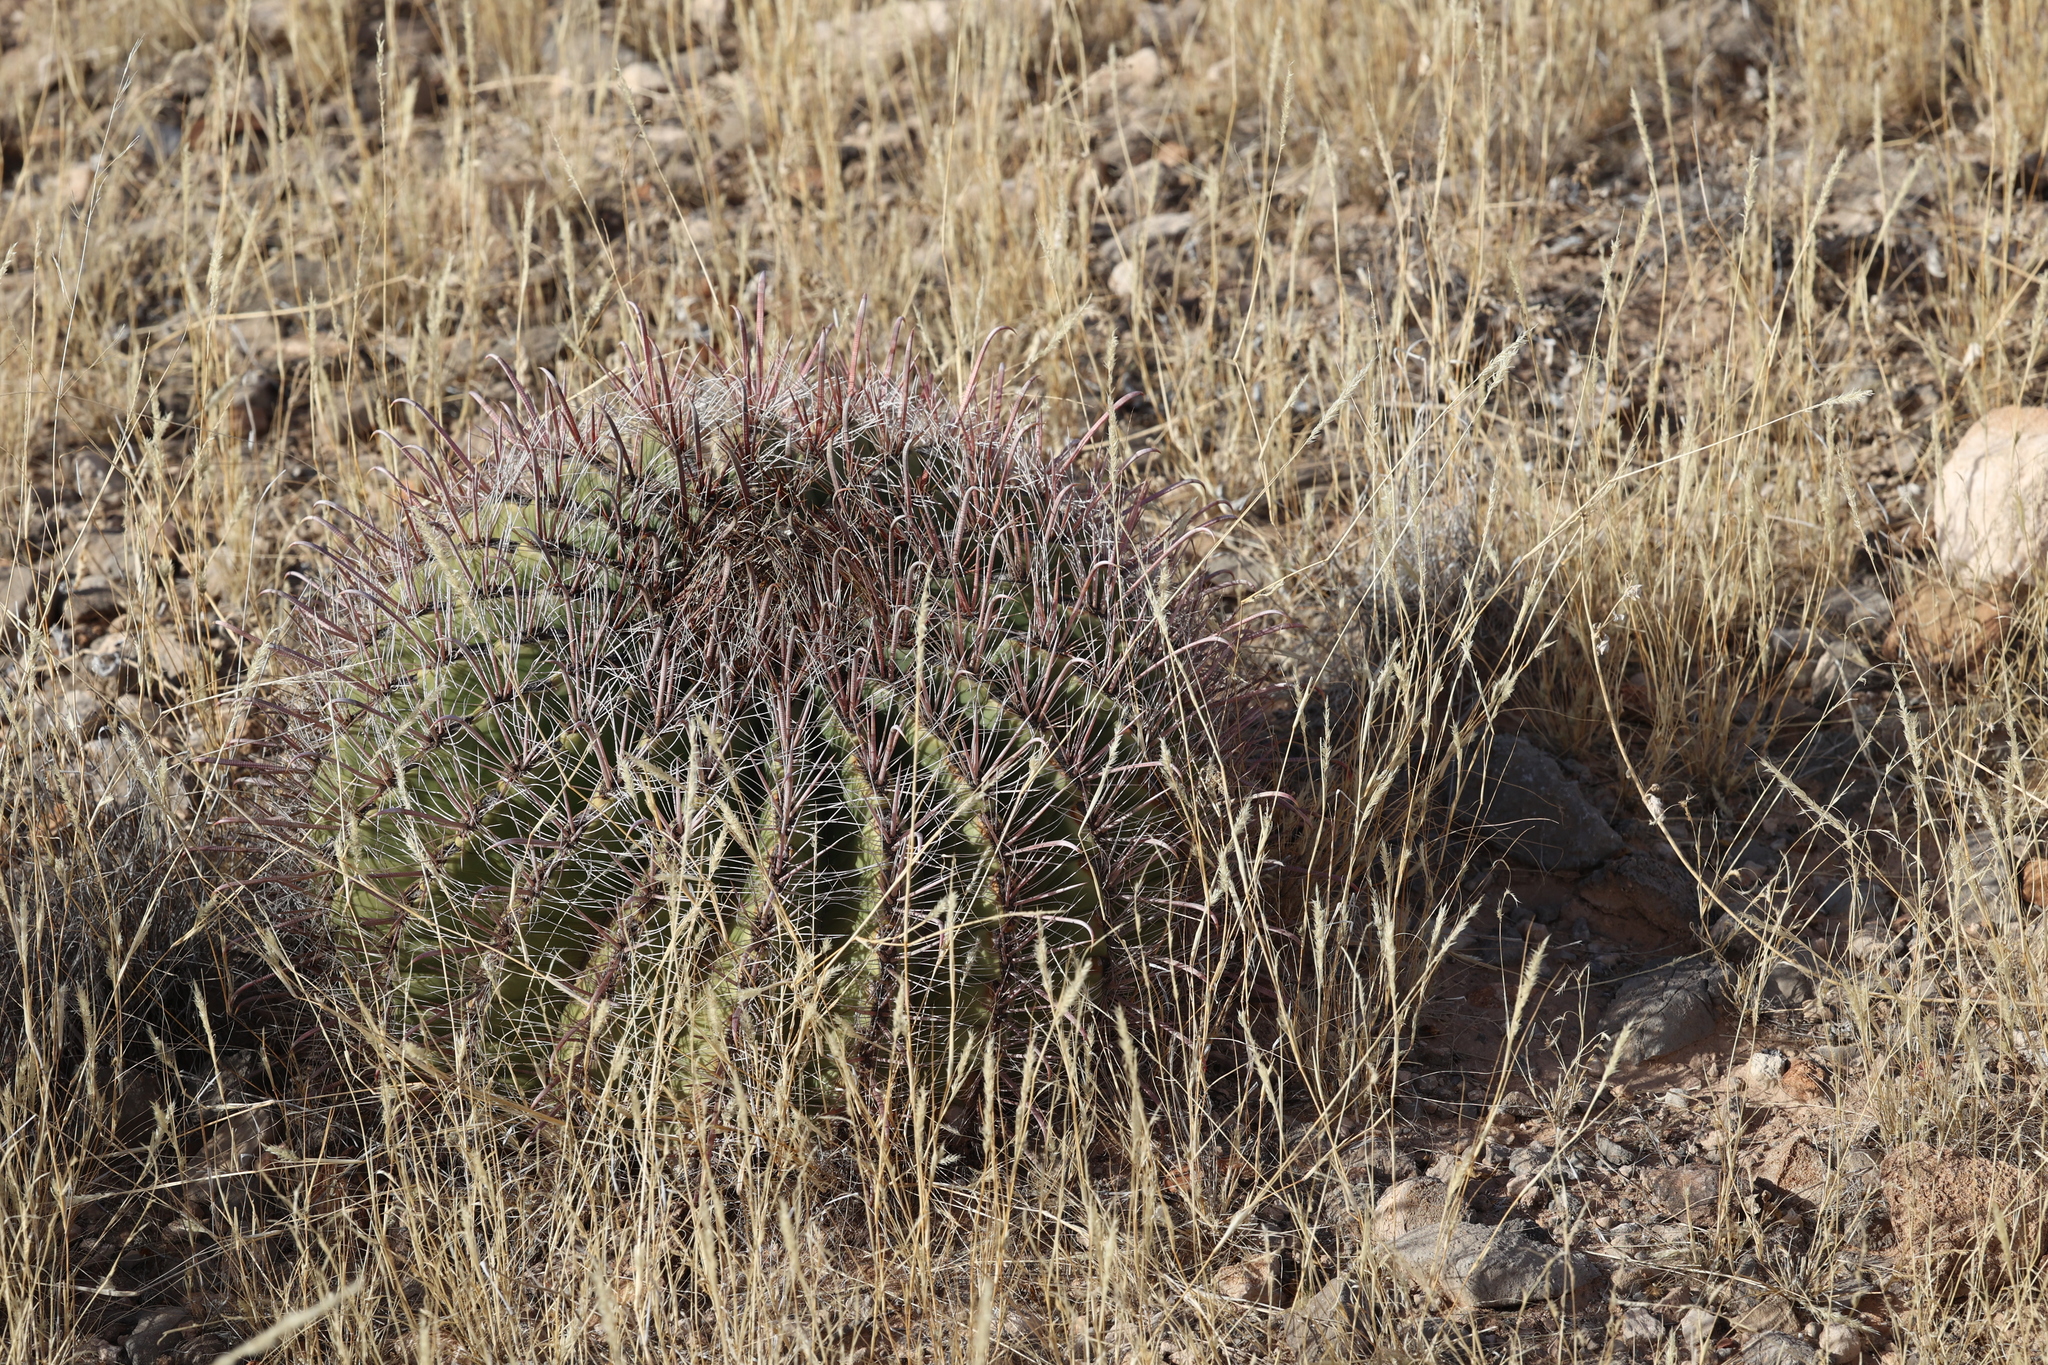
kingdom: Plantae
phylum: Tracheophyta
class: Magnoliopsida
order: Caryophyllales
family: Cactaceae
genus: Ferocactus
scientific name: Ferocactus wislizeni
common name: Candy barrel cactus
